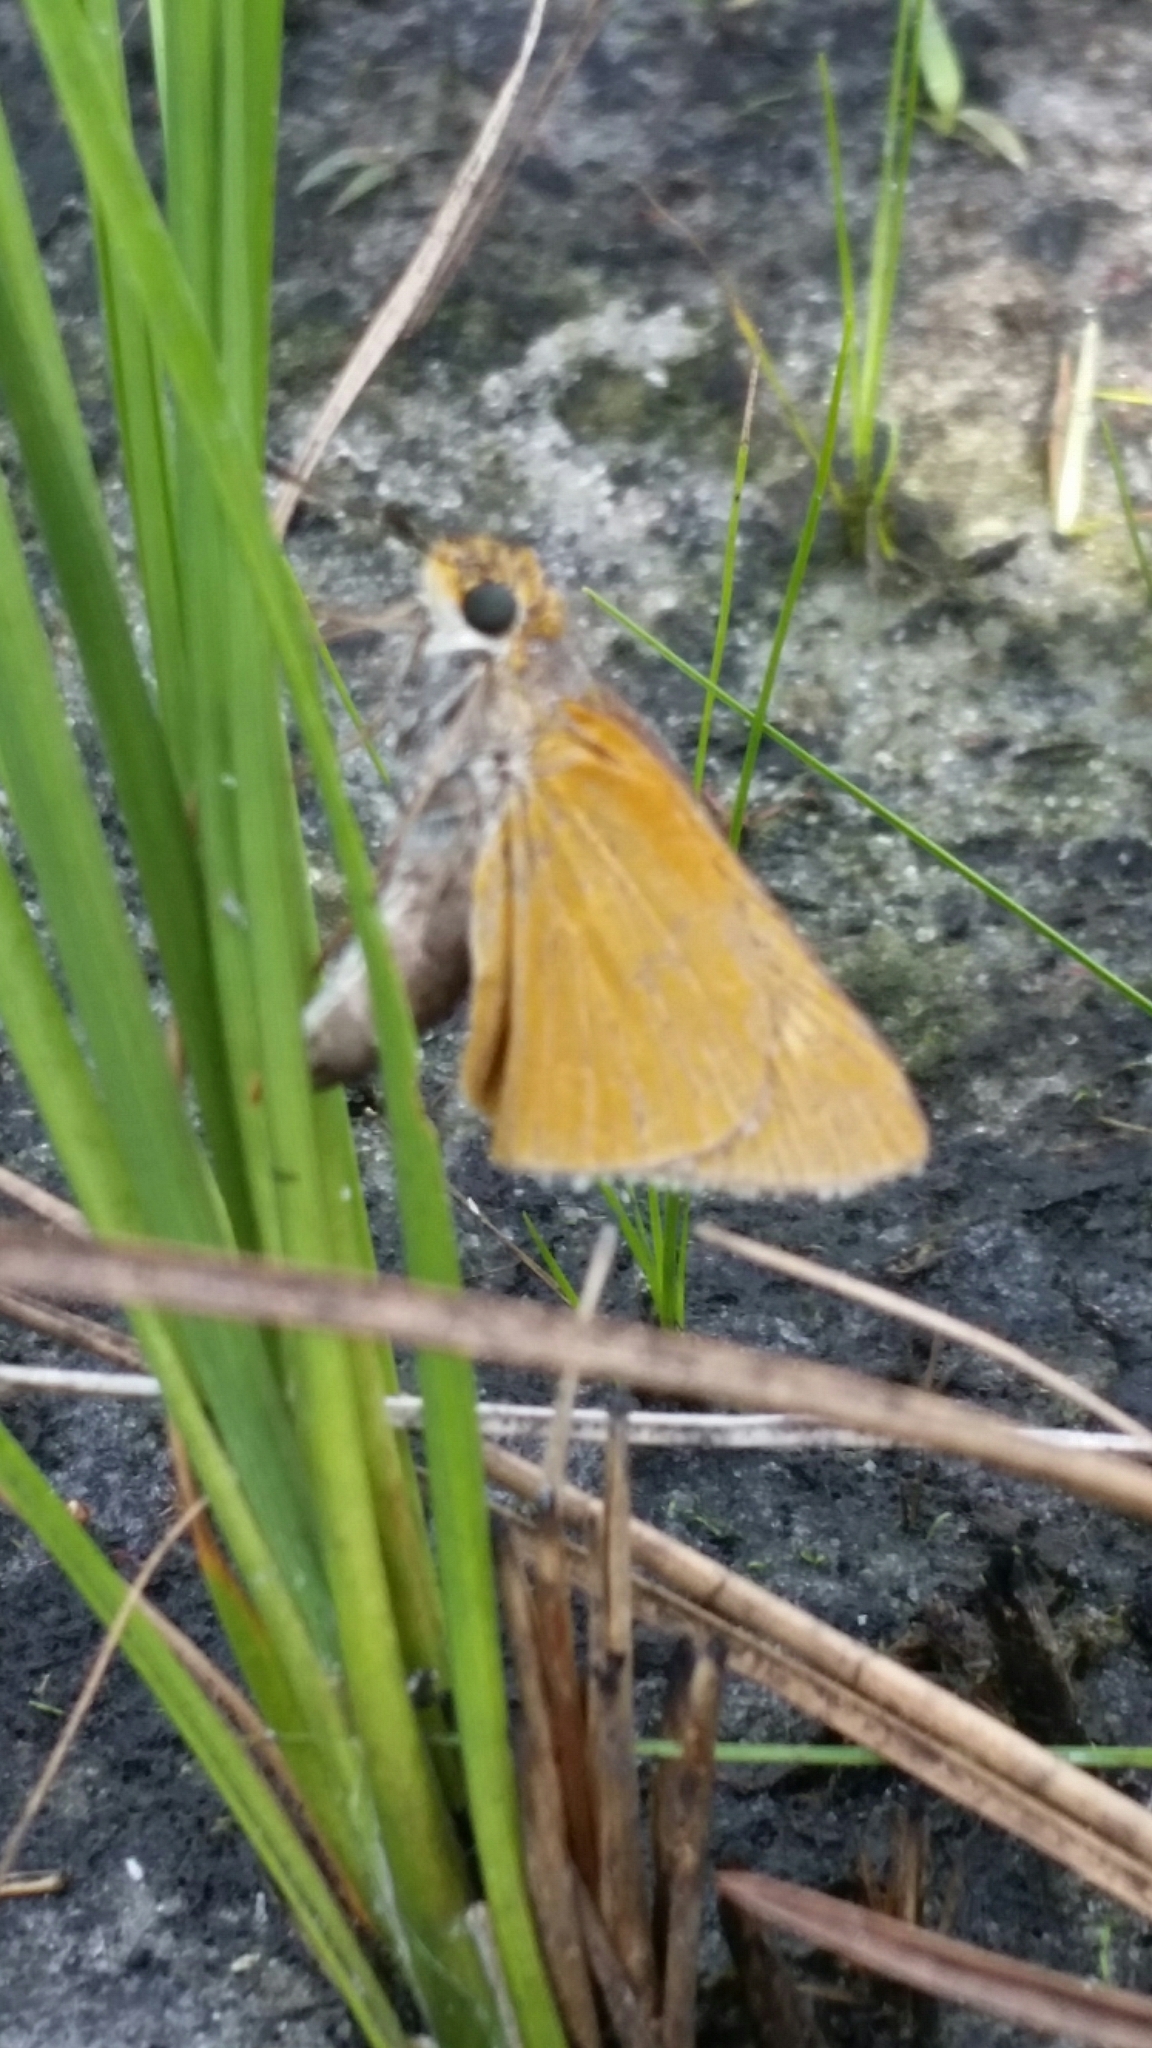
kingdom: Animalia
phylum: Arthropoda
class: Insecta
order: Lepidoptera
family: Hesperiidae
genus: Euphyes
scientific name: Euphyes arpa
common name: Palmetto skipper
